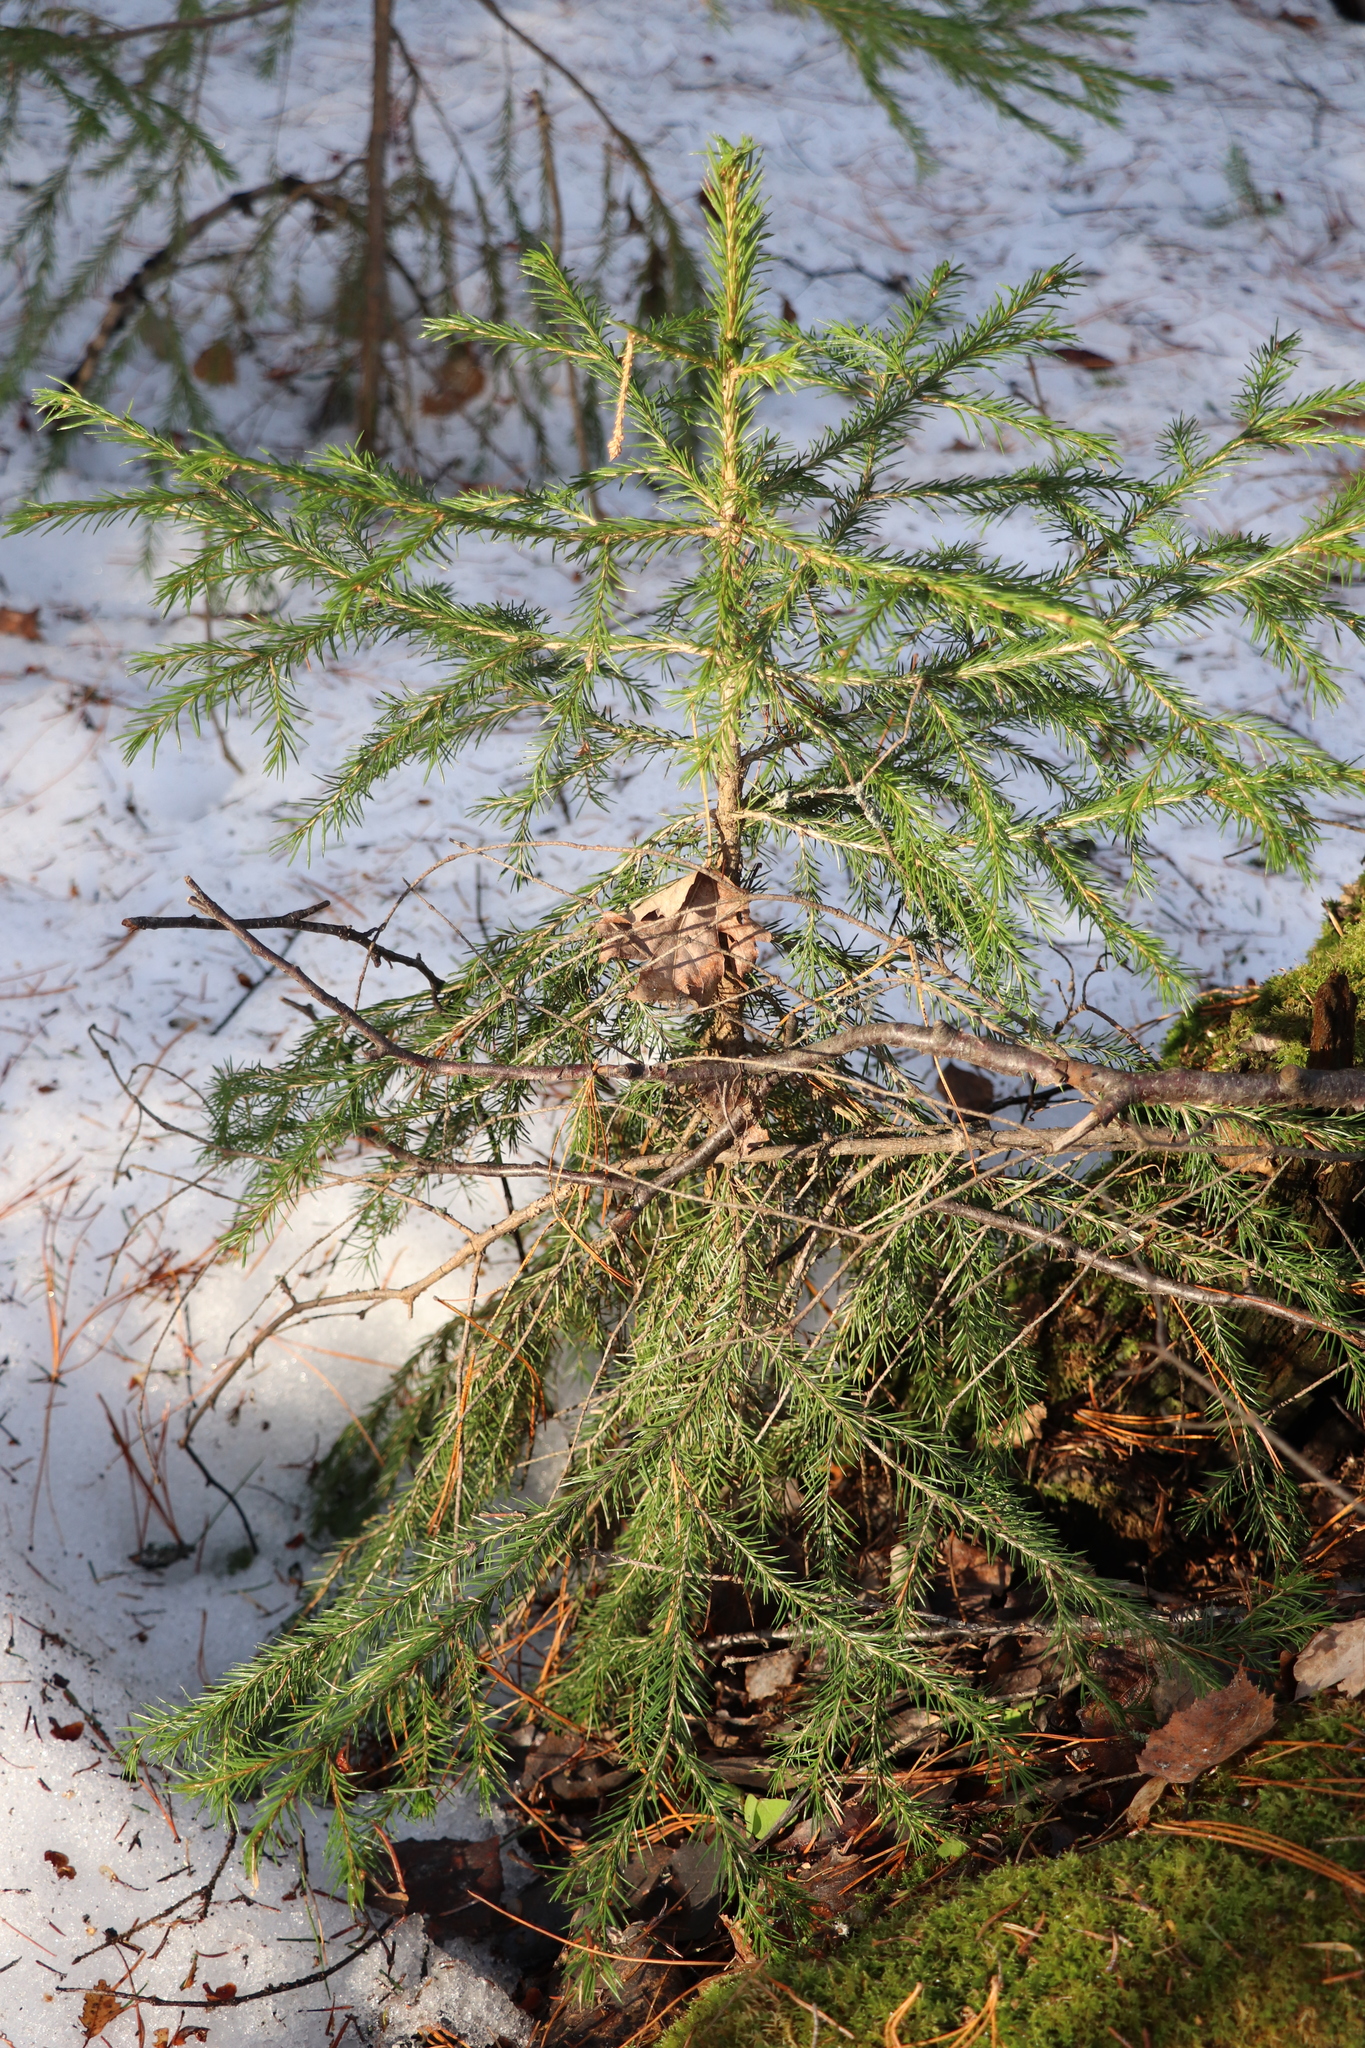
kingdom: Plantae
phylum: Tracheophyta
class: Pinopsida
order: Pinales
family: Pinaceae
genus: Picea
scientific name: Picea obovata
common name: Siberian spruce
